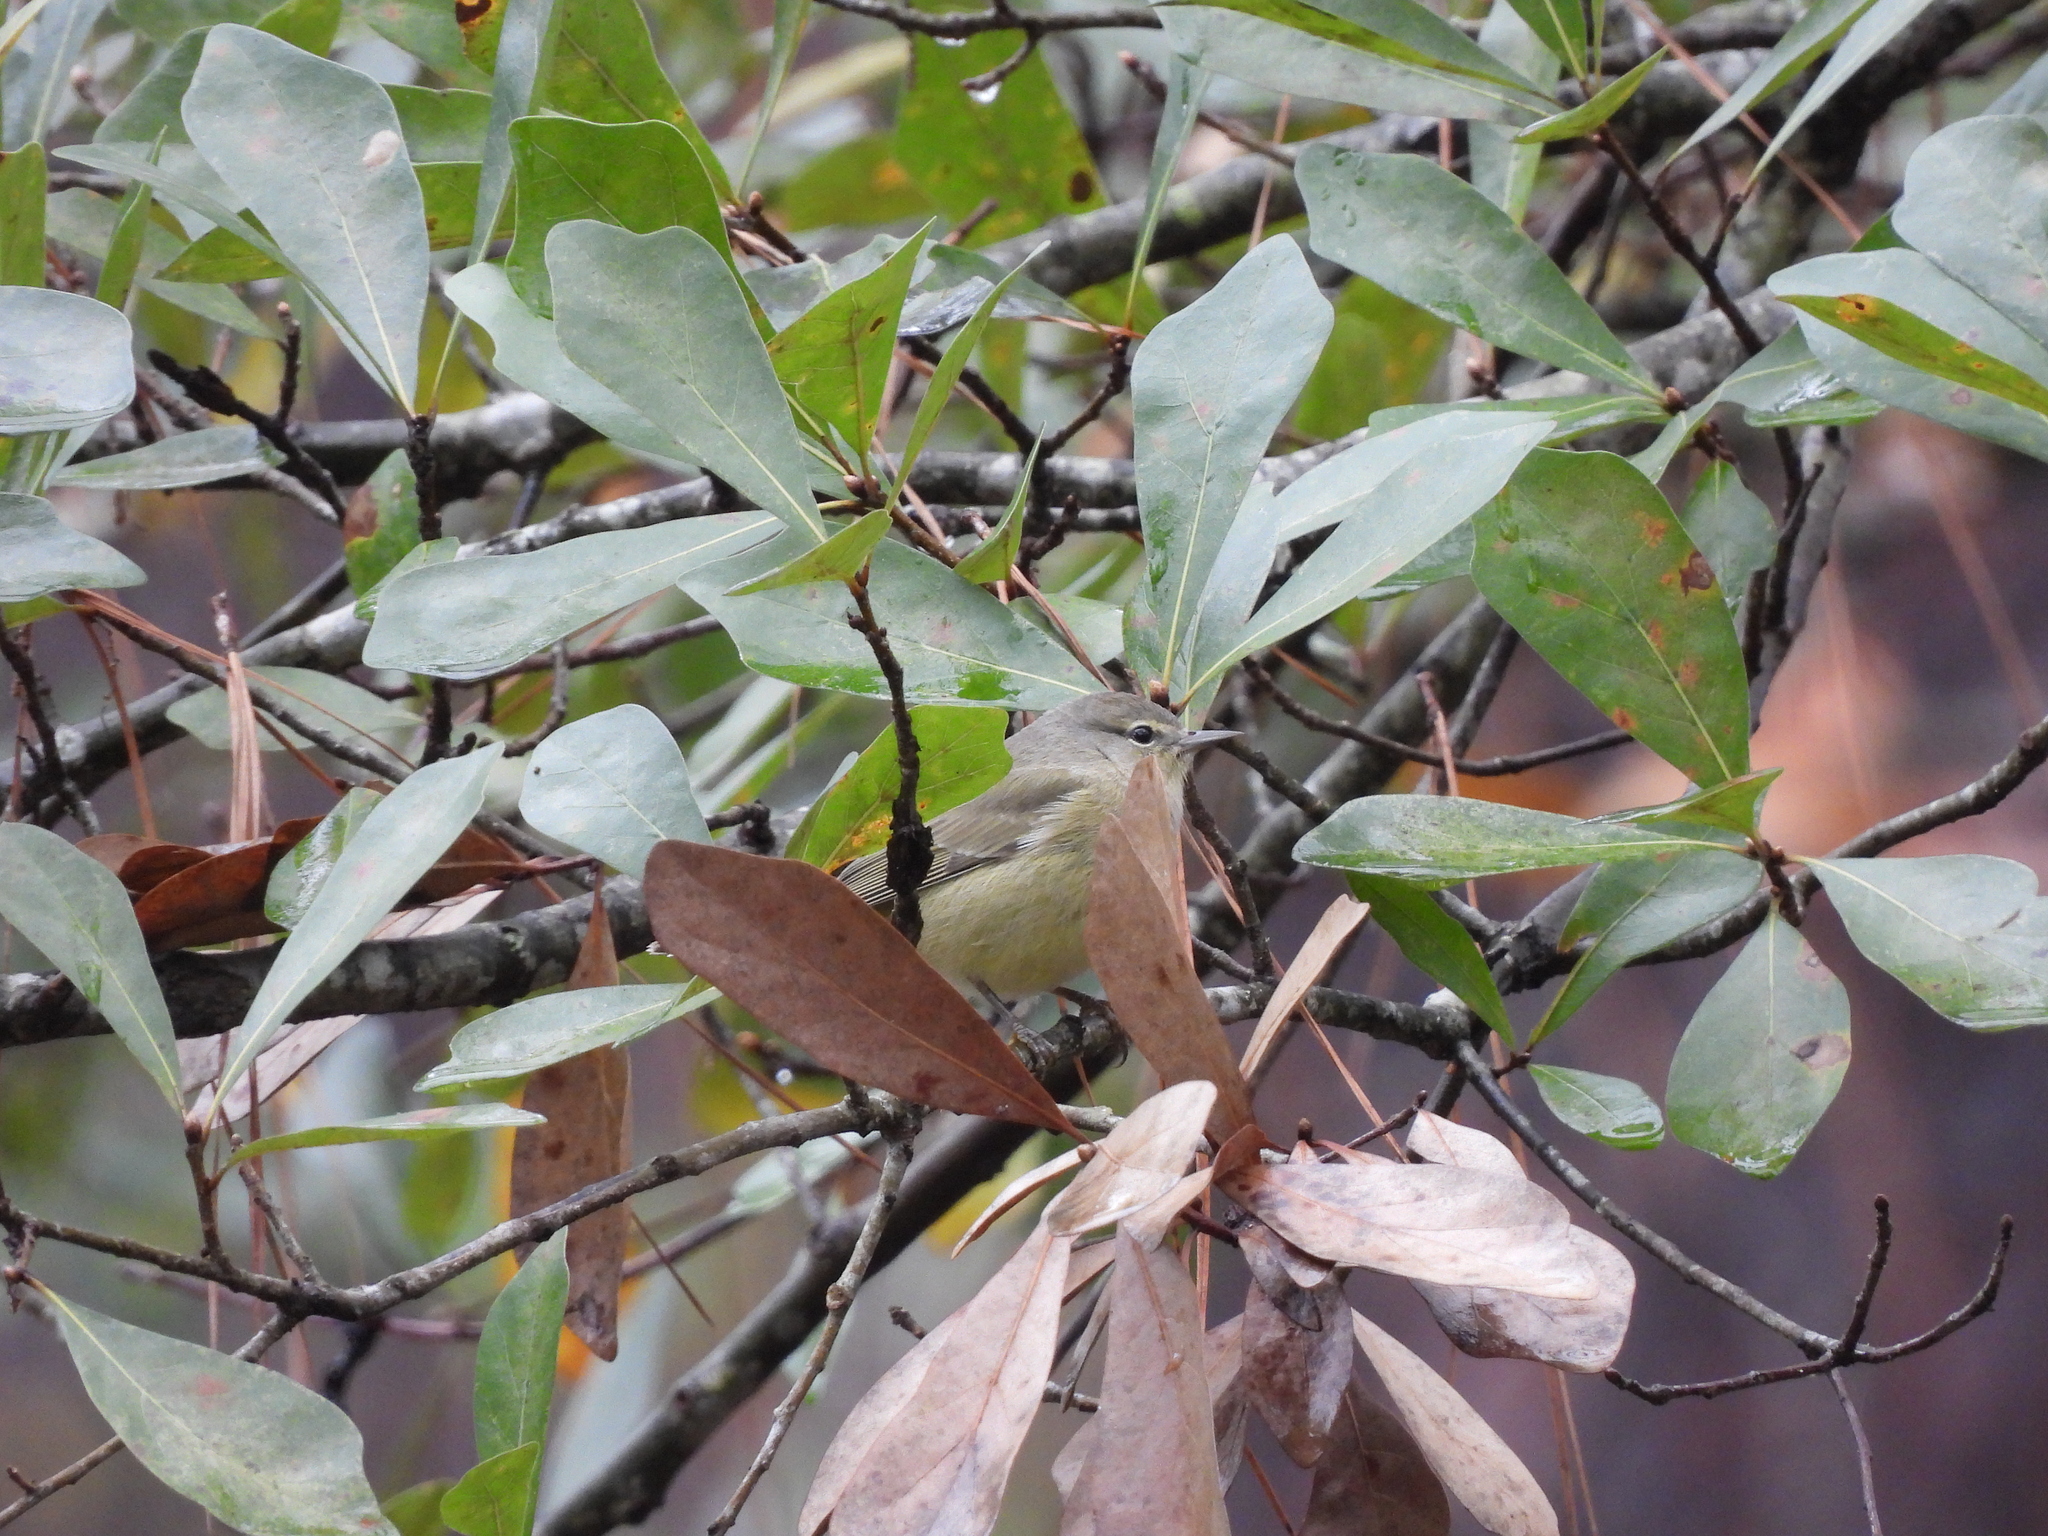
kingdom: Animalia
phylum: Chordata
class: Aves
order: Passeriformes
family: Parulidae
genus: Leiothlypis
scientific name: Leiothlypis celata
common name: Orange-crowned warbler
